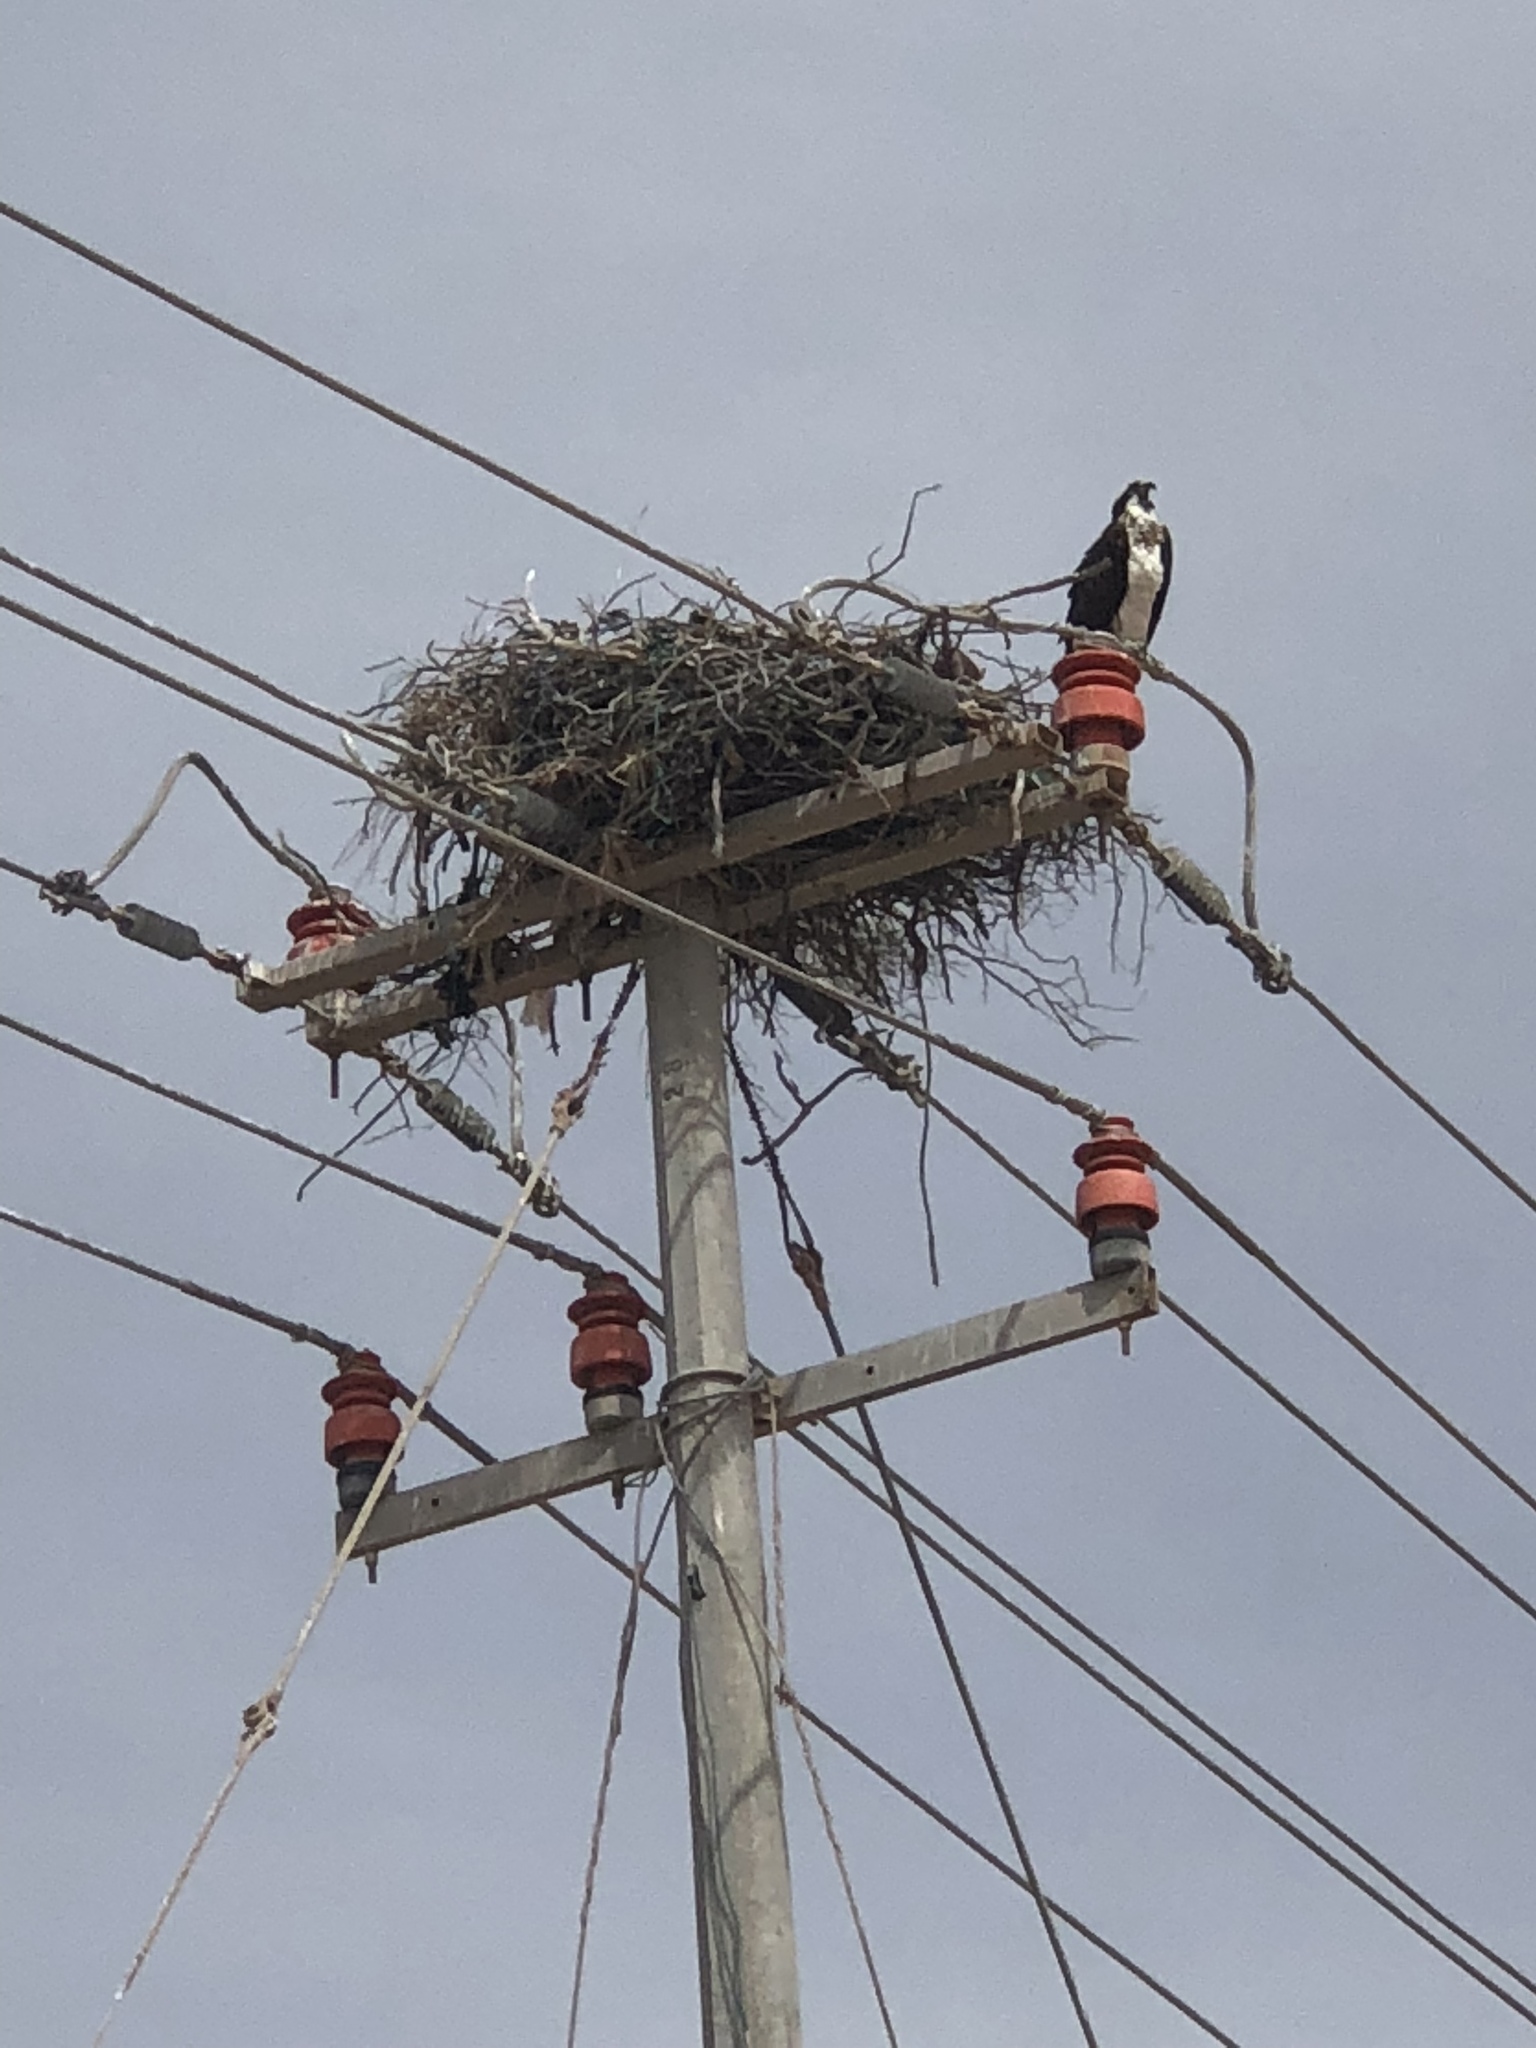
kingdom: Animalia
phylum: Chordata
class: Aves
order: Accipitriformes
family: Pandionidae
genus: Pandion
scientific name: Pandion haliaetus
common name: Osprey
